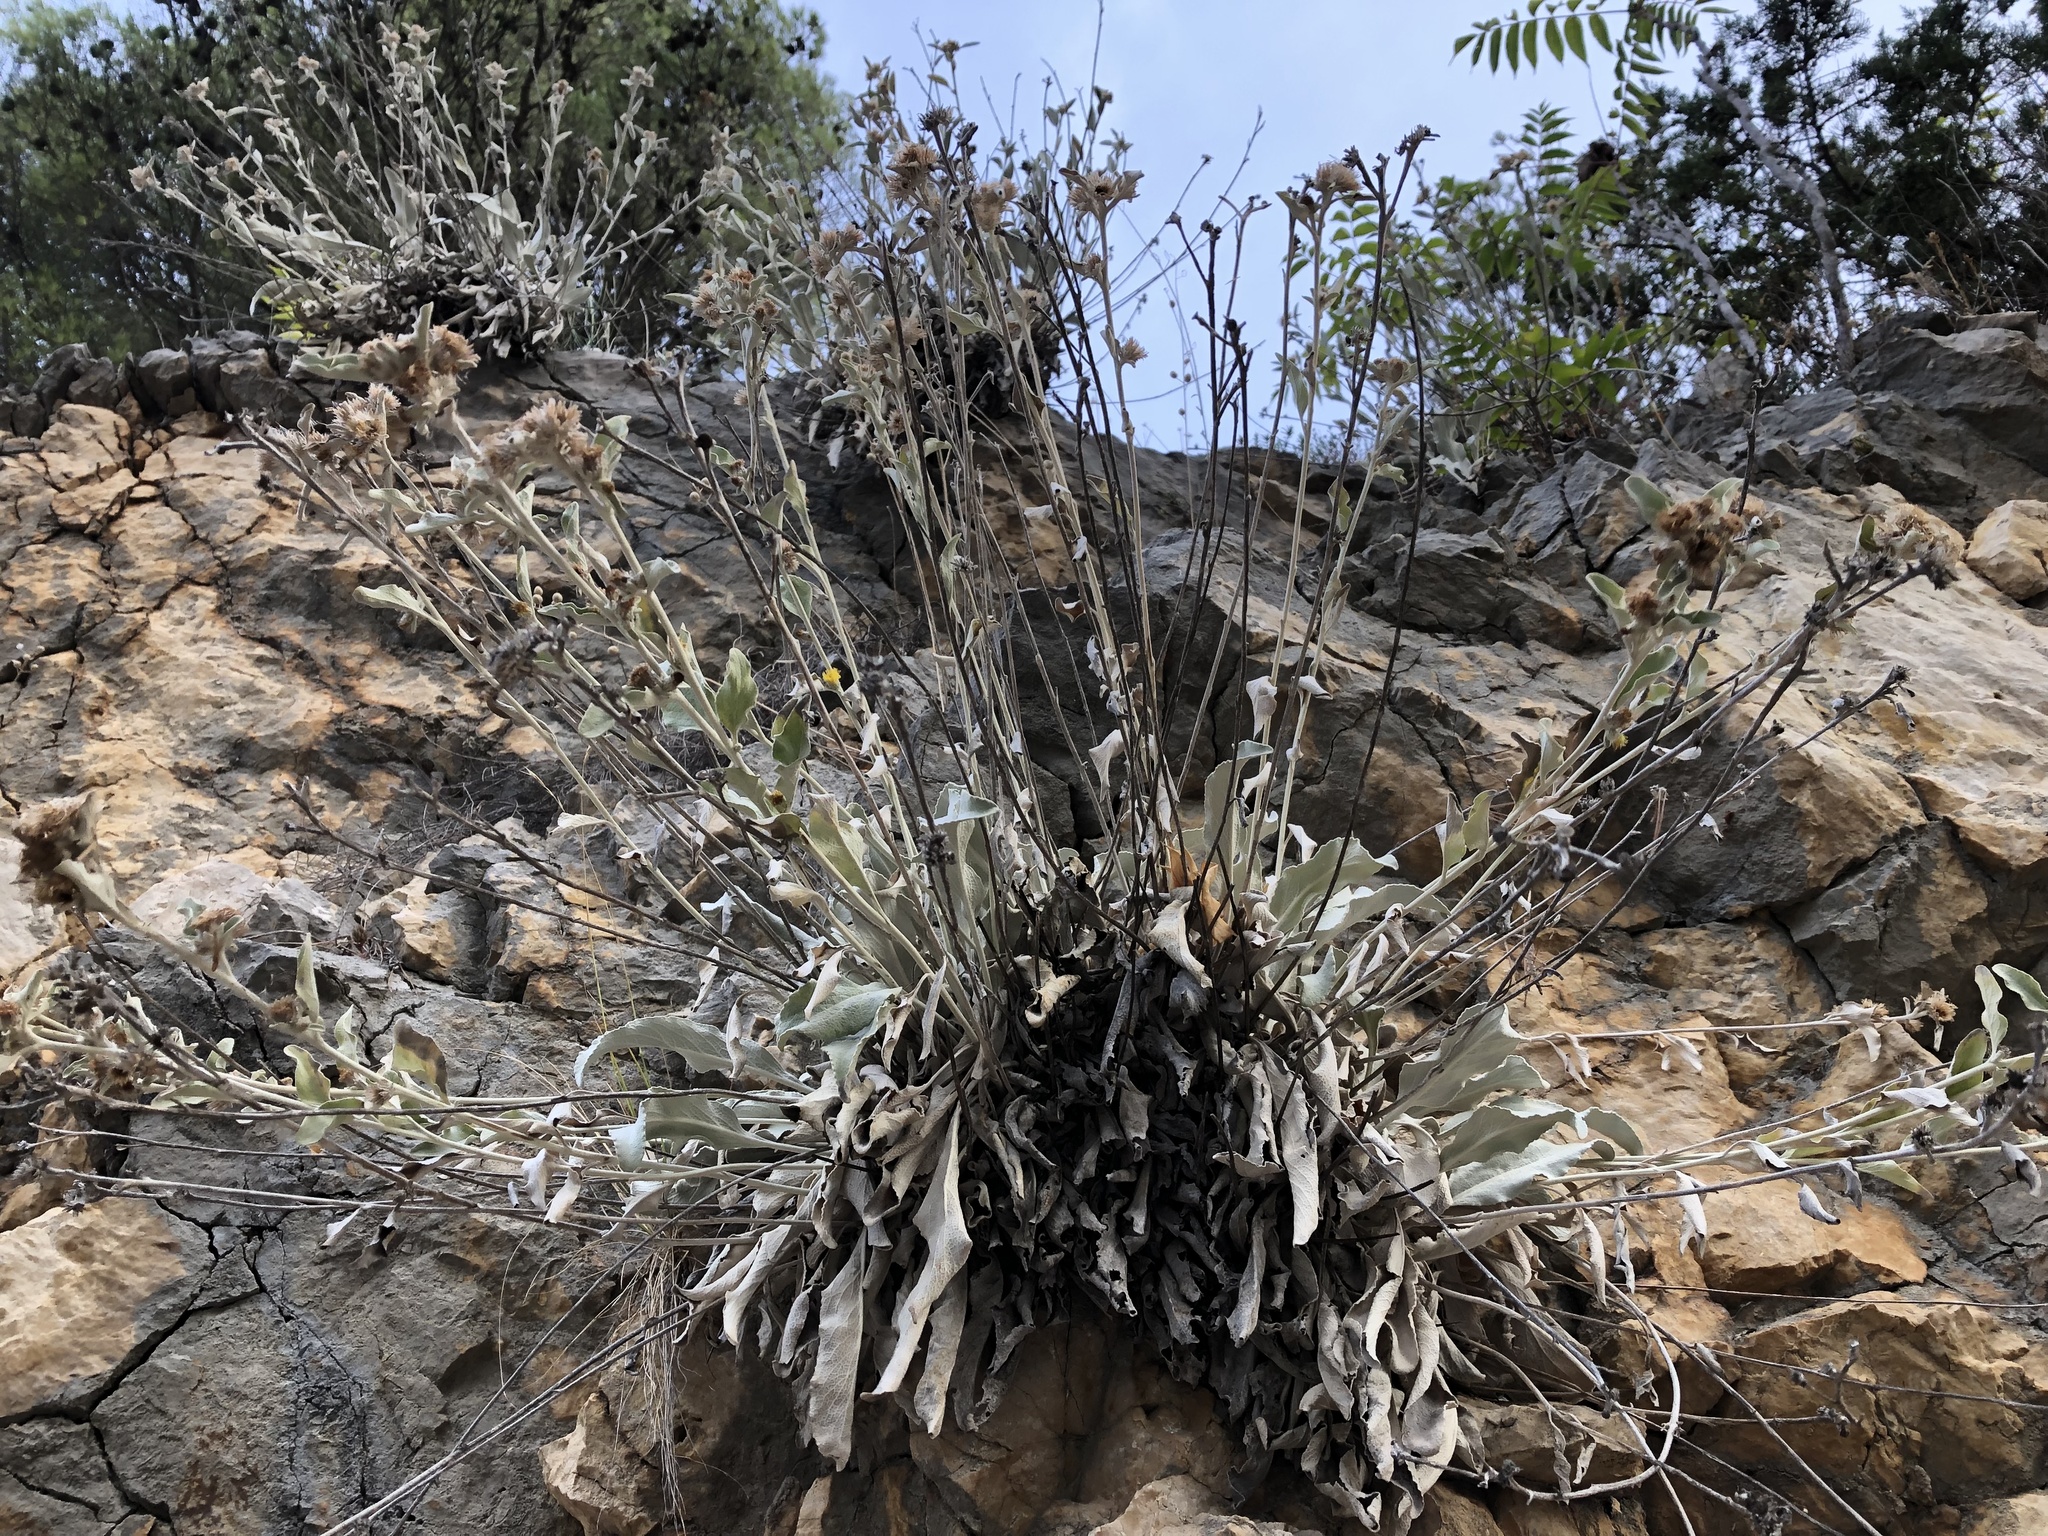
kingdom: Plantae
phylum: Tracheophyta
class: Magnoliopsida
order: Asterales
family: Asteraceae
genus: Pentanema
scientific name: Pentanema verbascifolium
